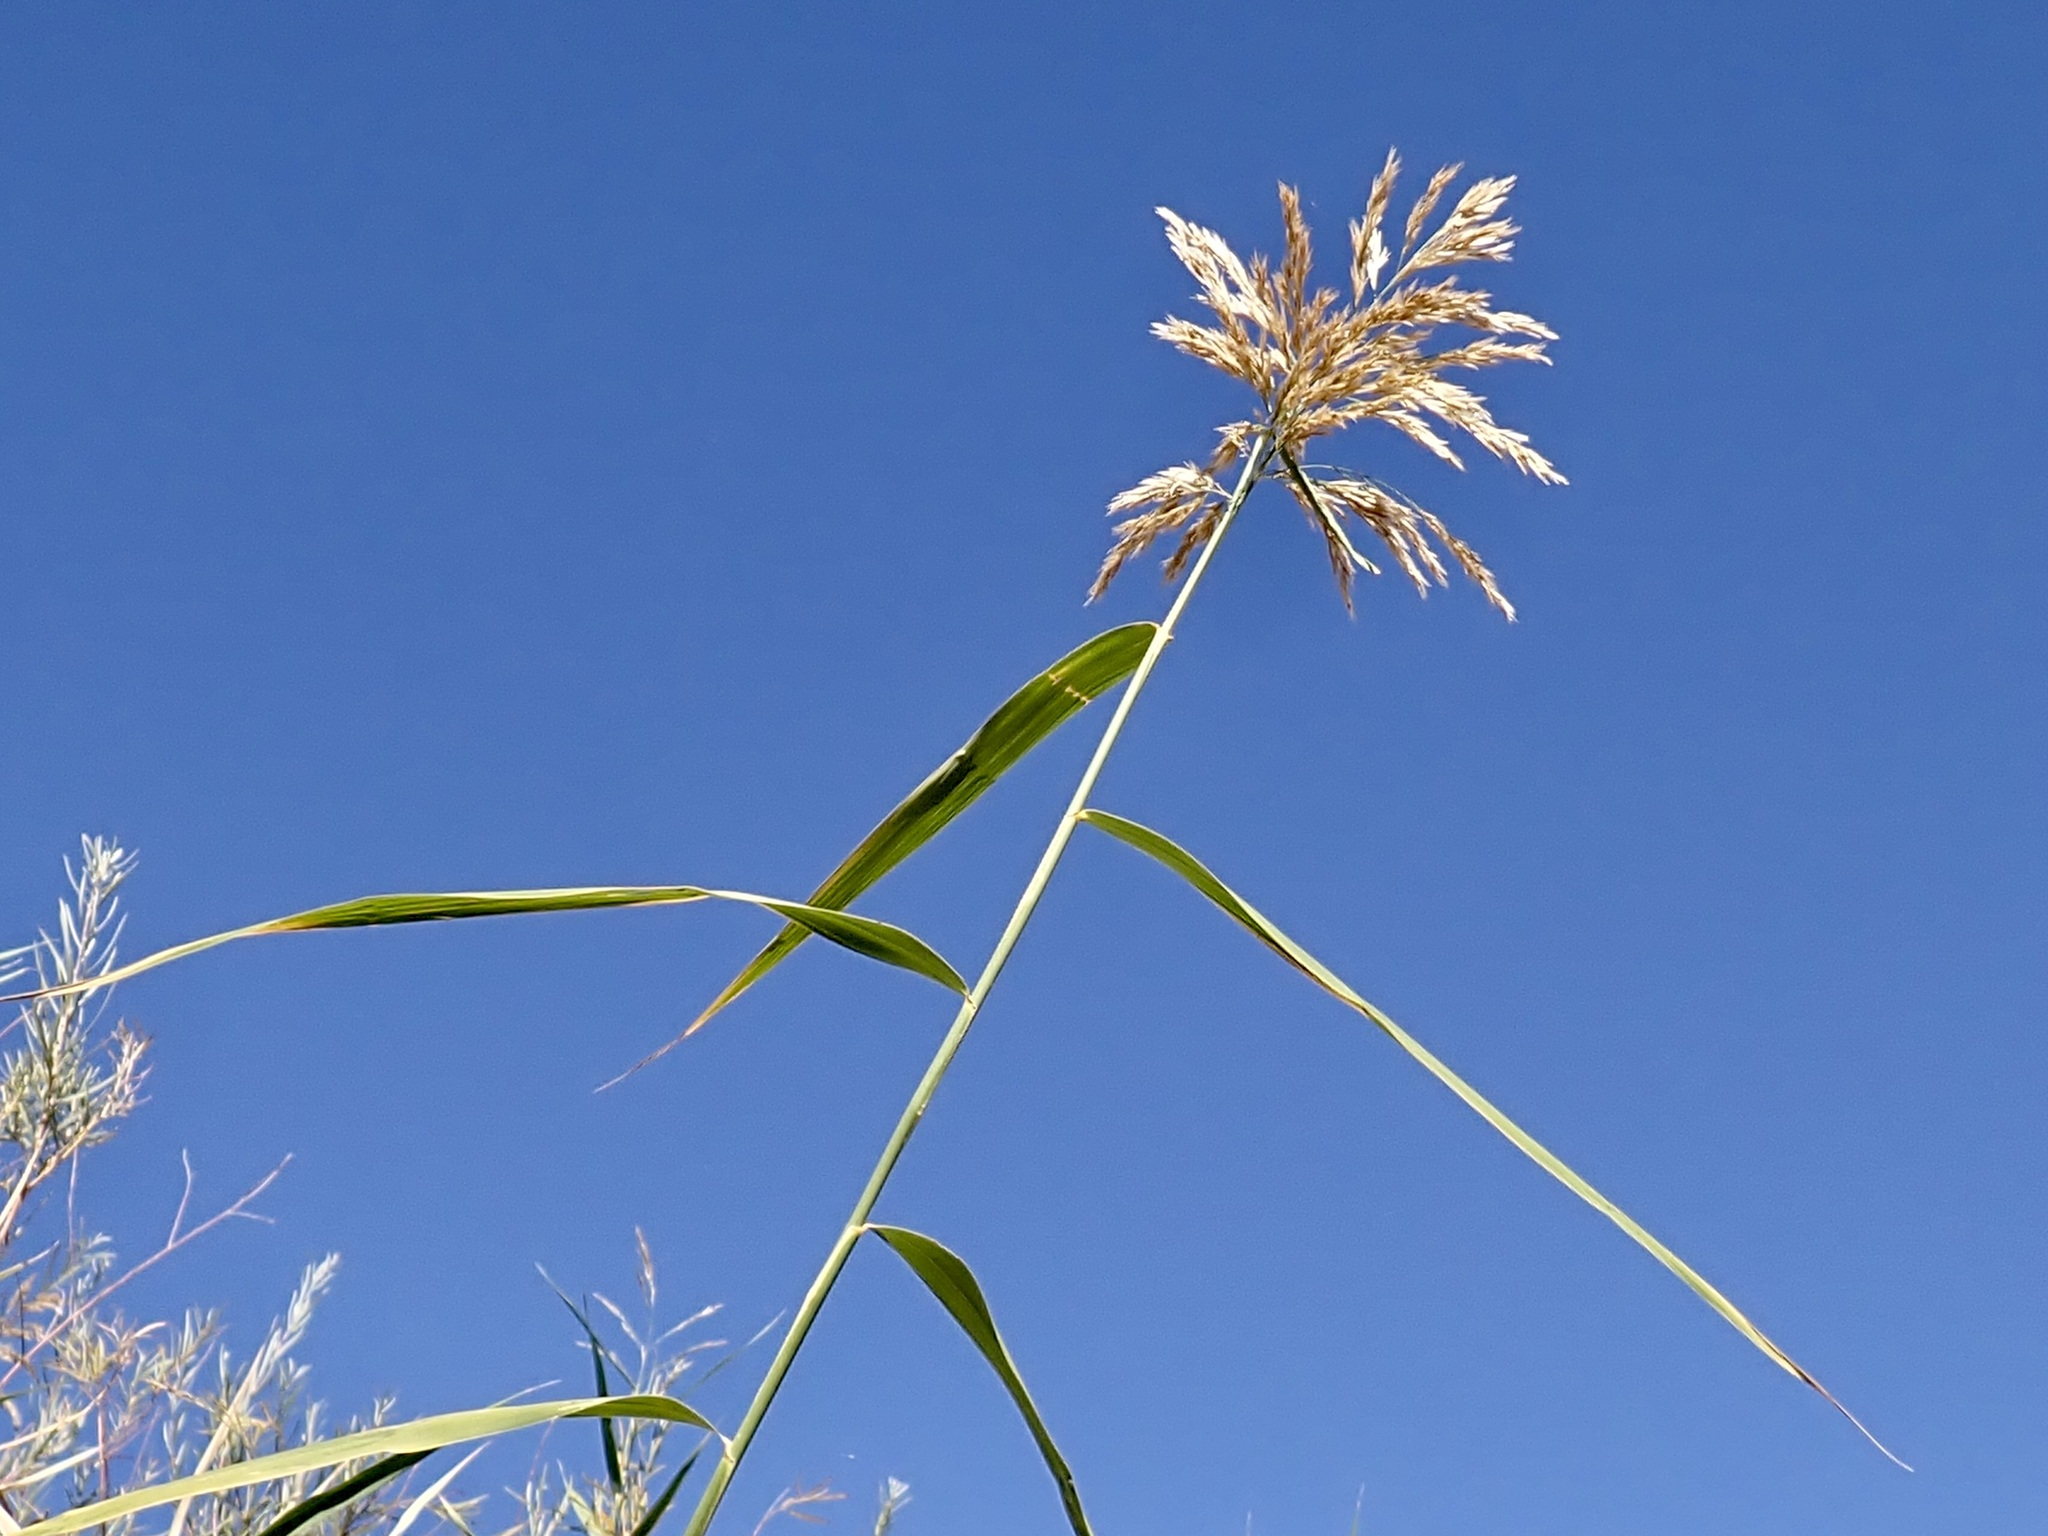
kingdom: Plantae
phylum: Tracheophyta
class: Liliopsida
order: Poales
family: Poaceae
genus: Phragmites
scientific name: Phragmites australis
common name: Common reed
